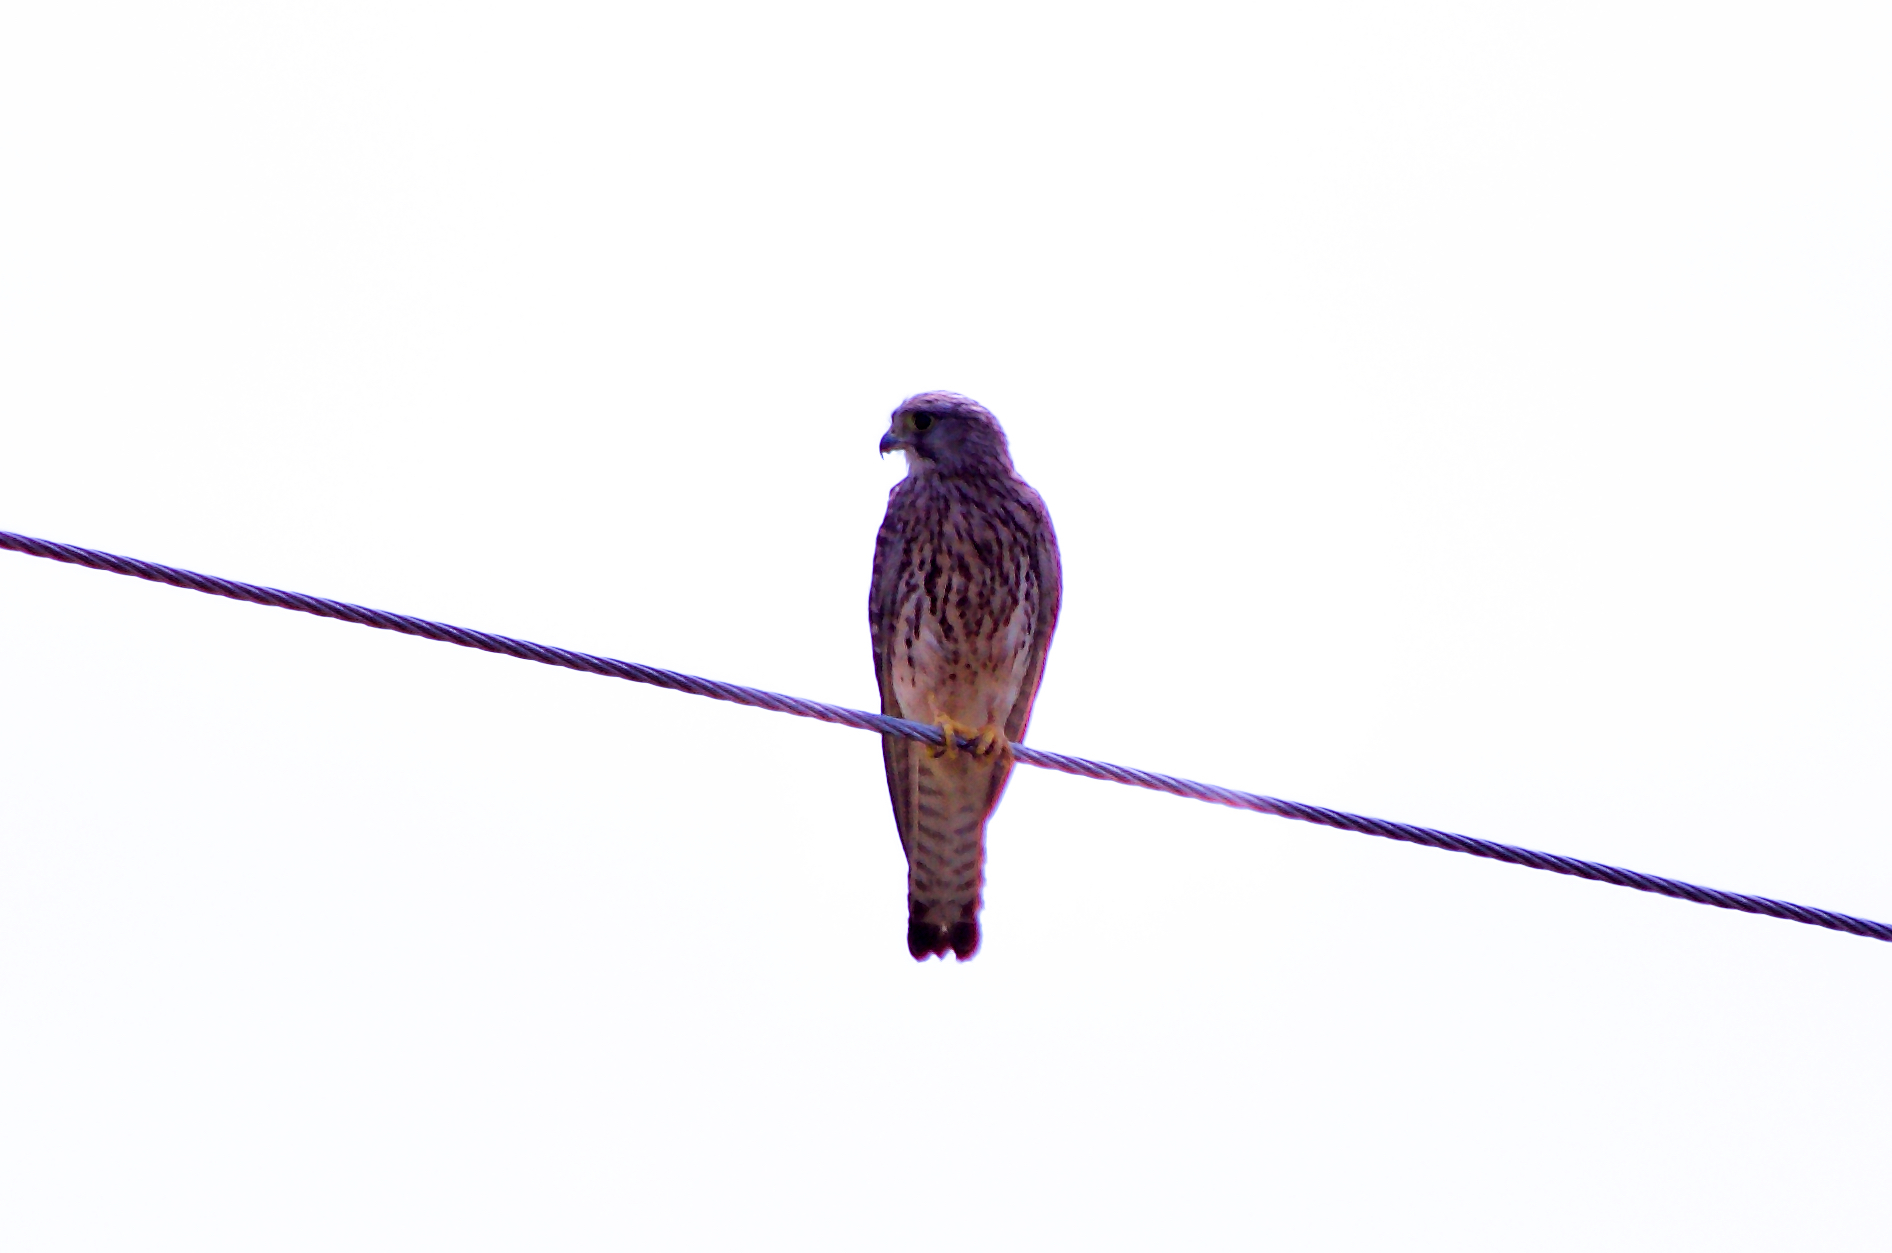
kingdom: Animalia
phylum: Chordata
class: Aves
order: Falconiformes
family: Falconidae
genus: Falco
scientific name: Falco tinnunculus
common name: Common kestrel
